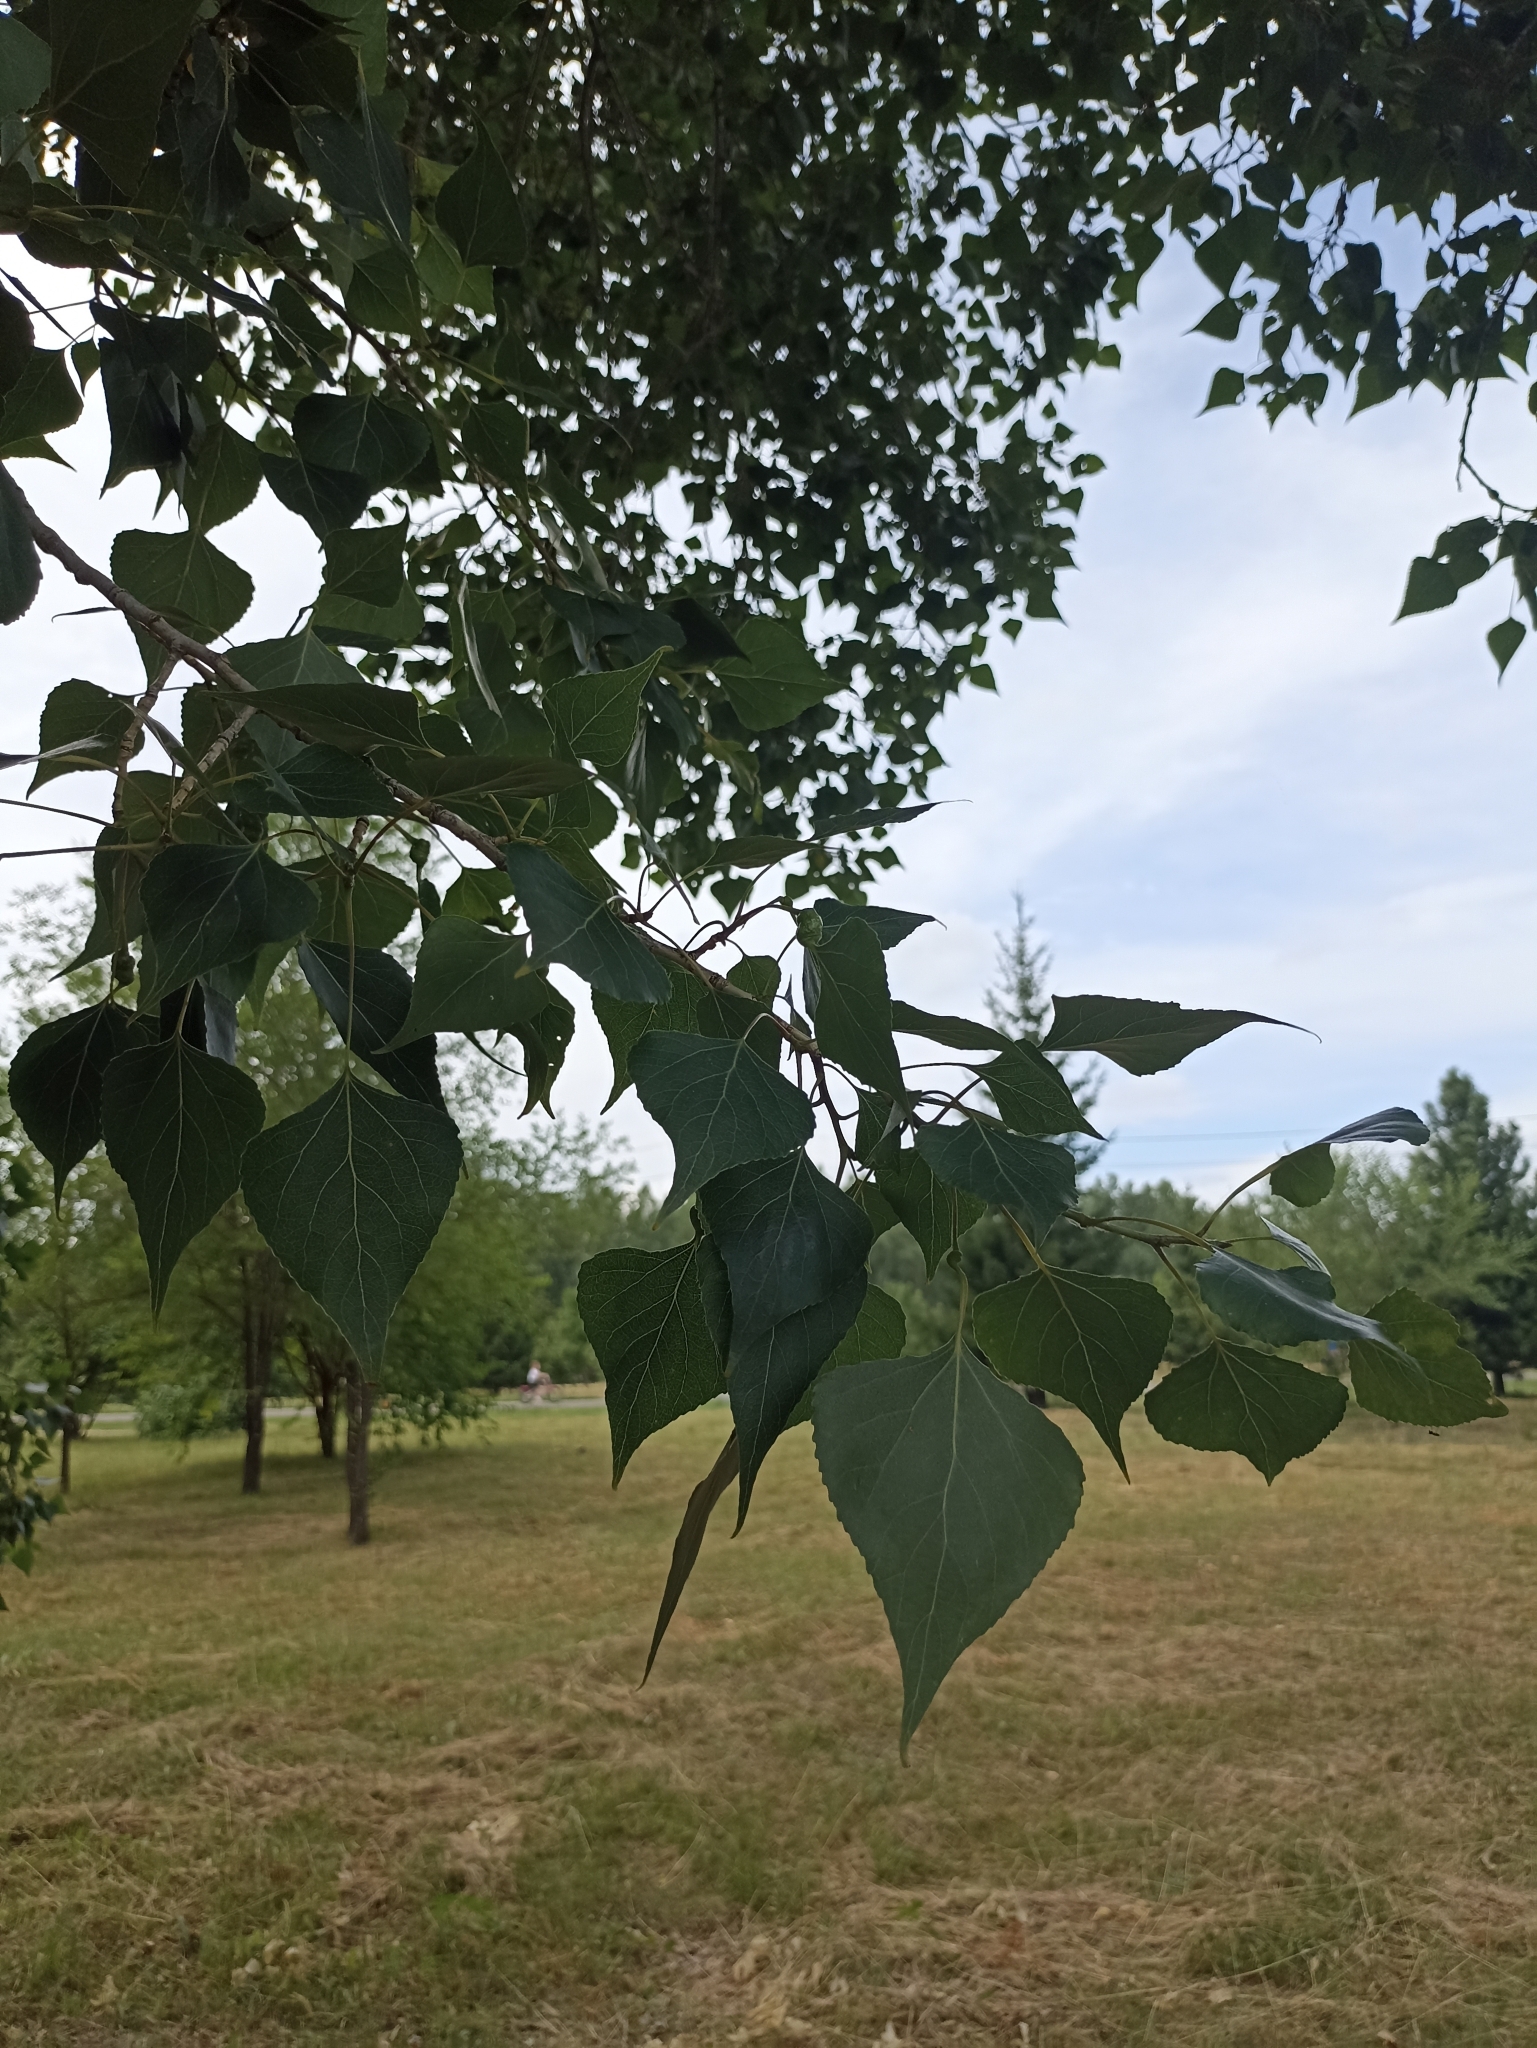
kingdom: Plantae
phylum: Tracheophyta
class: Magnoliopsida
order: Malpighiales
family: Salicaceae
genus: Populus
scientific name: Populus nigra
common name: Black poplar
